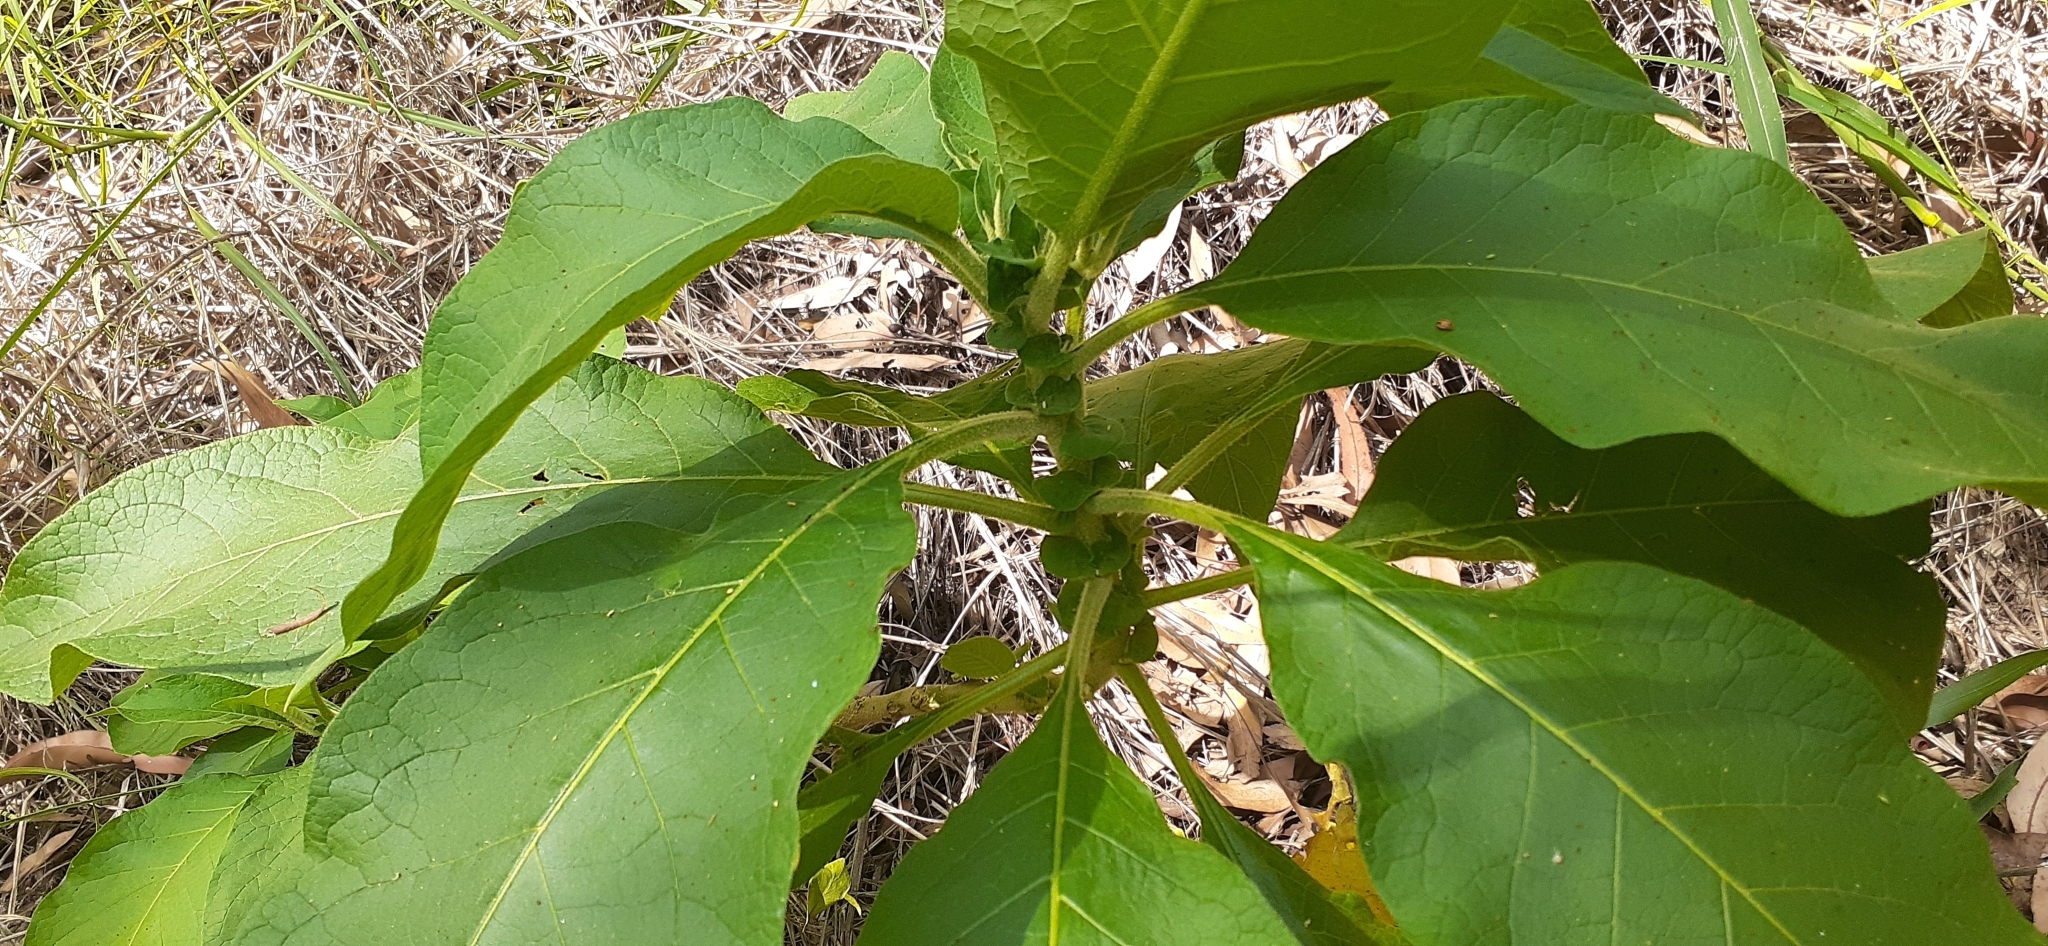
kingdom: Plantae
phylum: Tracheophyta
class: Magnoliopsida
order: Solanales
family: Solanaceae
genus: Solanum
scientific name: Solanum mauritianum
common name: Earleaf nightshade
